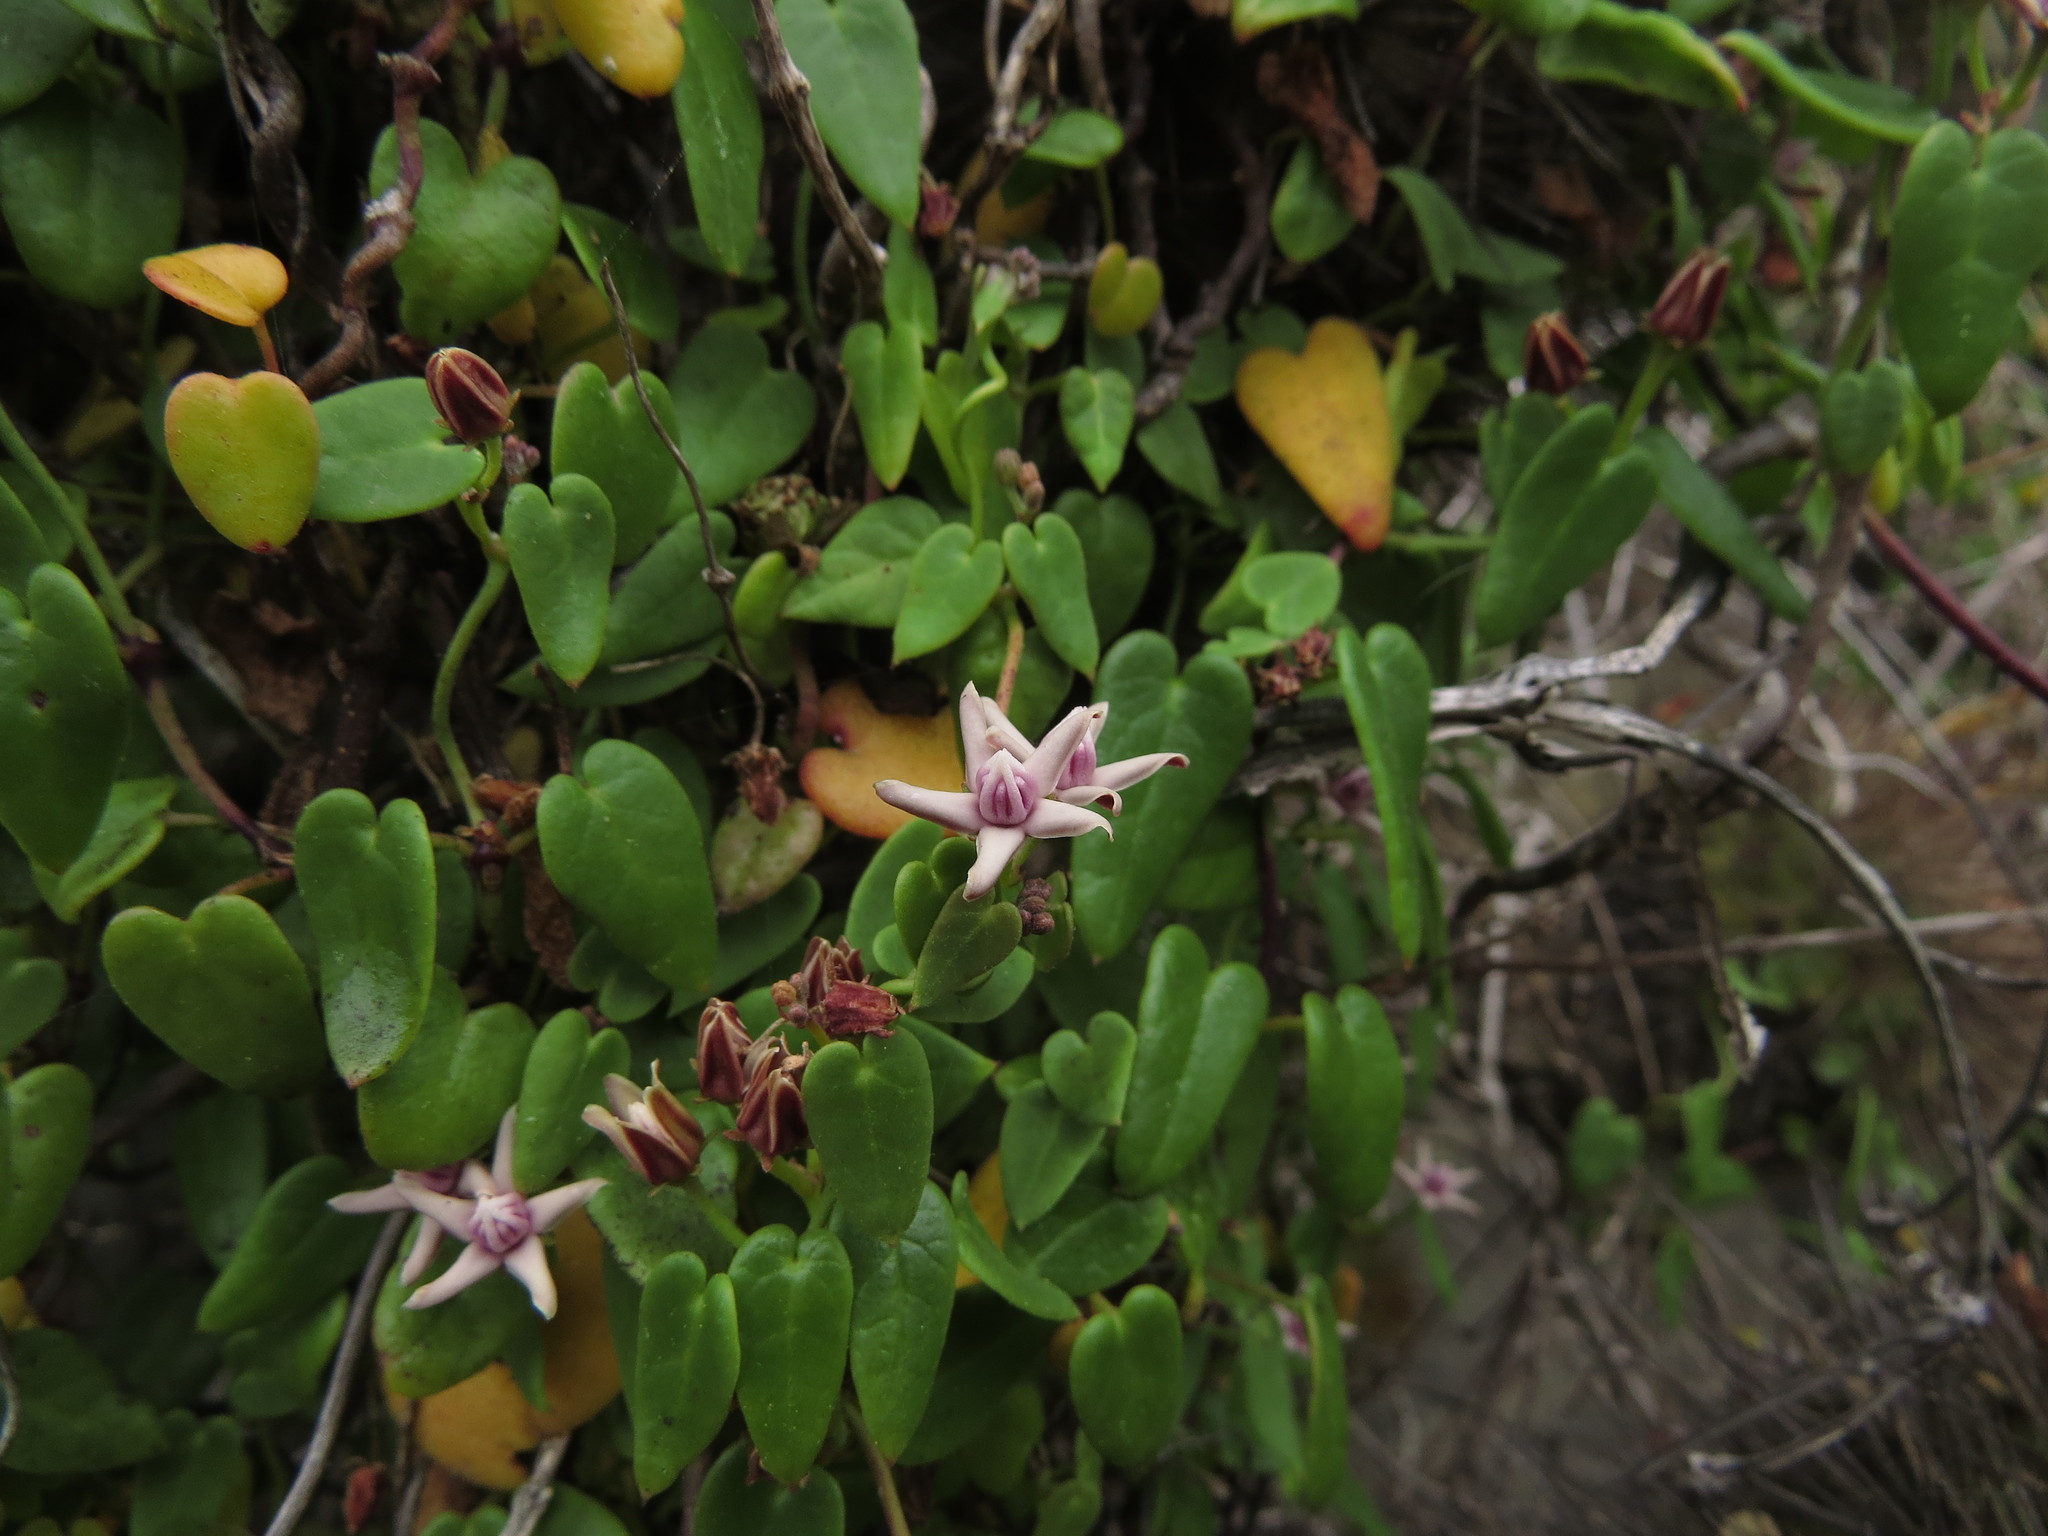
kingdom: Plantae
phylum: Tracheophyta
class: Magnoliopsida
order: Gentianales
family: Apocynaceae
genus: Diplolepis
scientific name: Diplolepis boerhaviifolia
